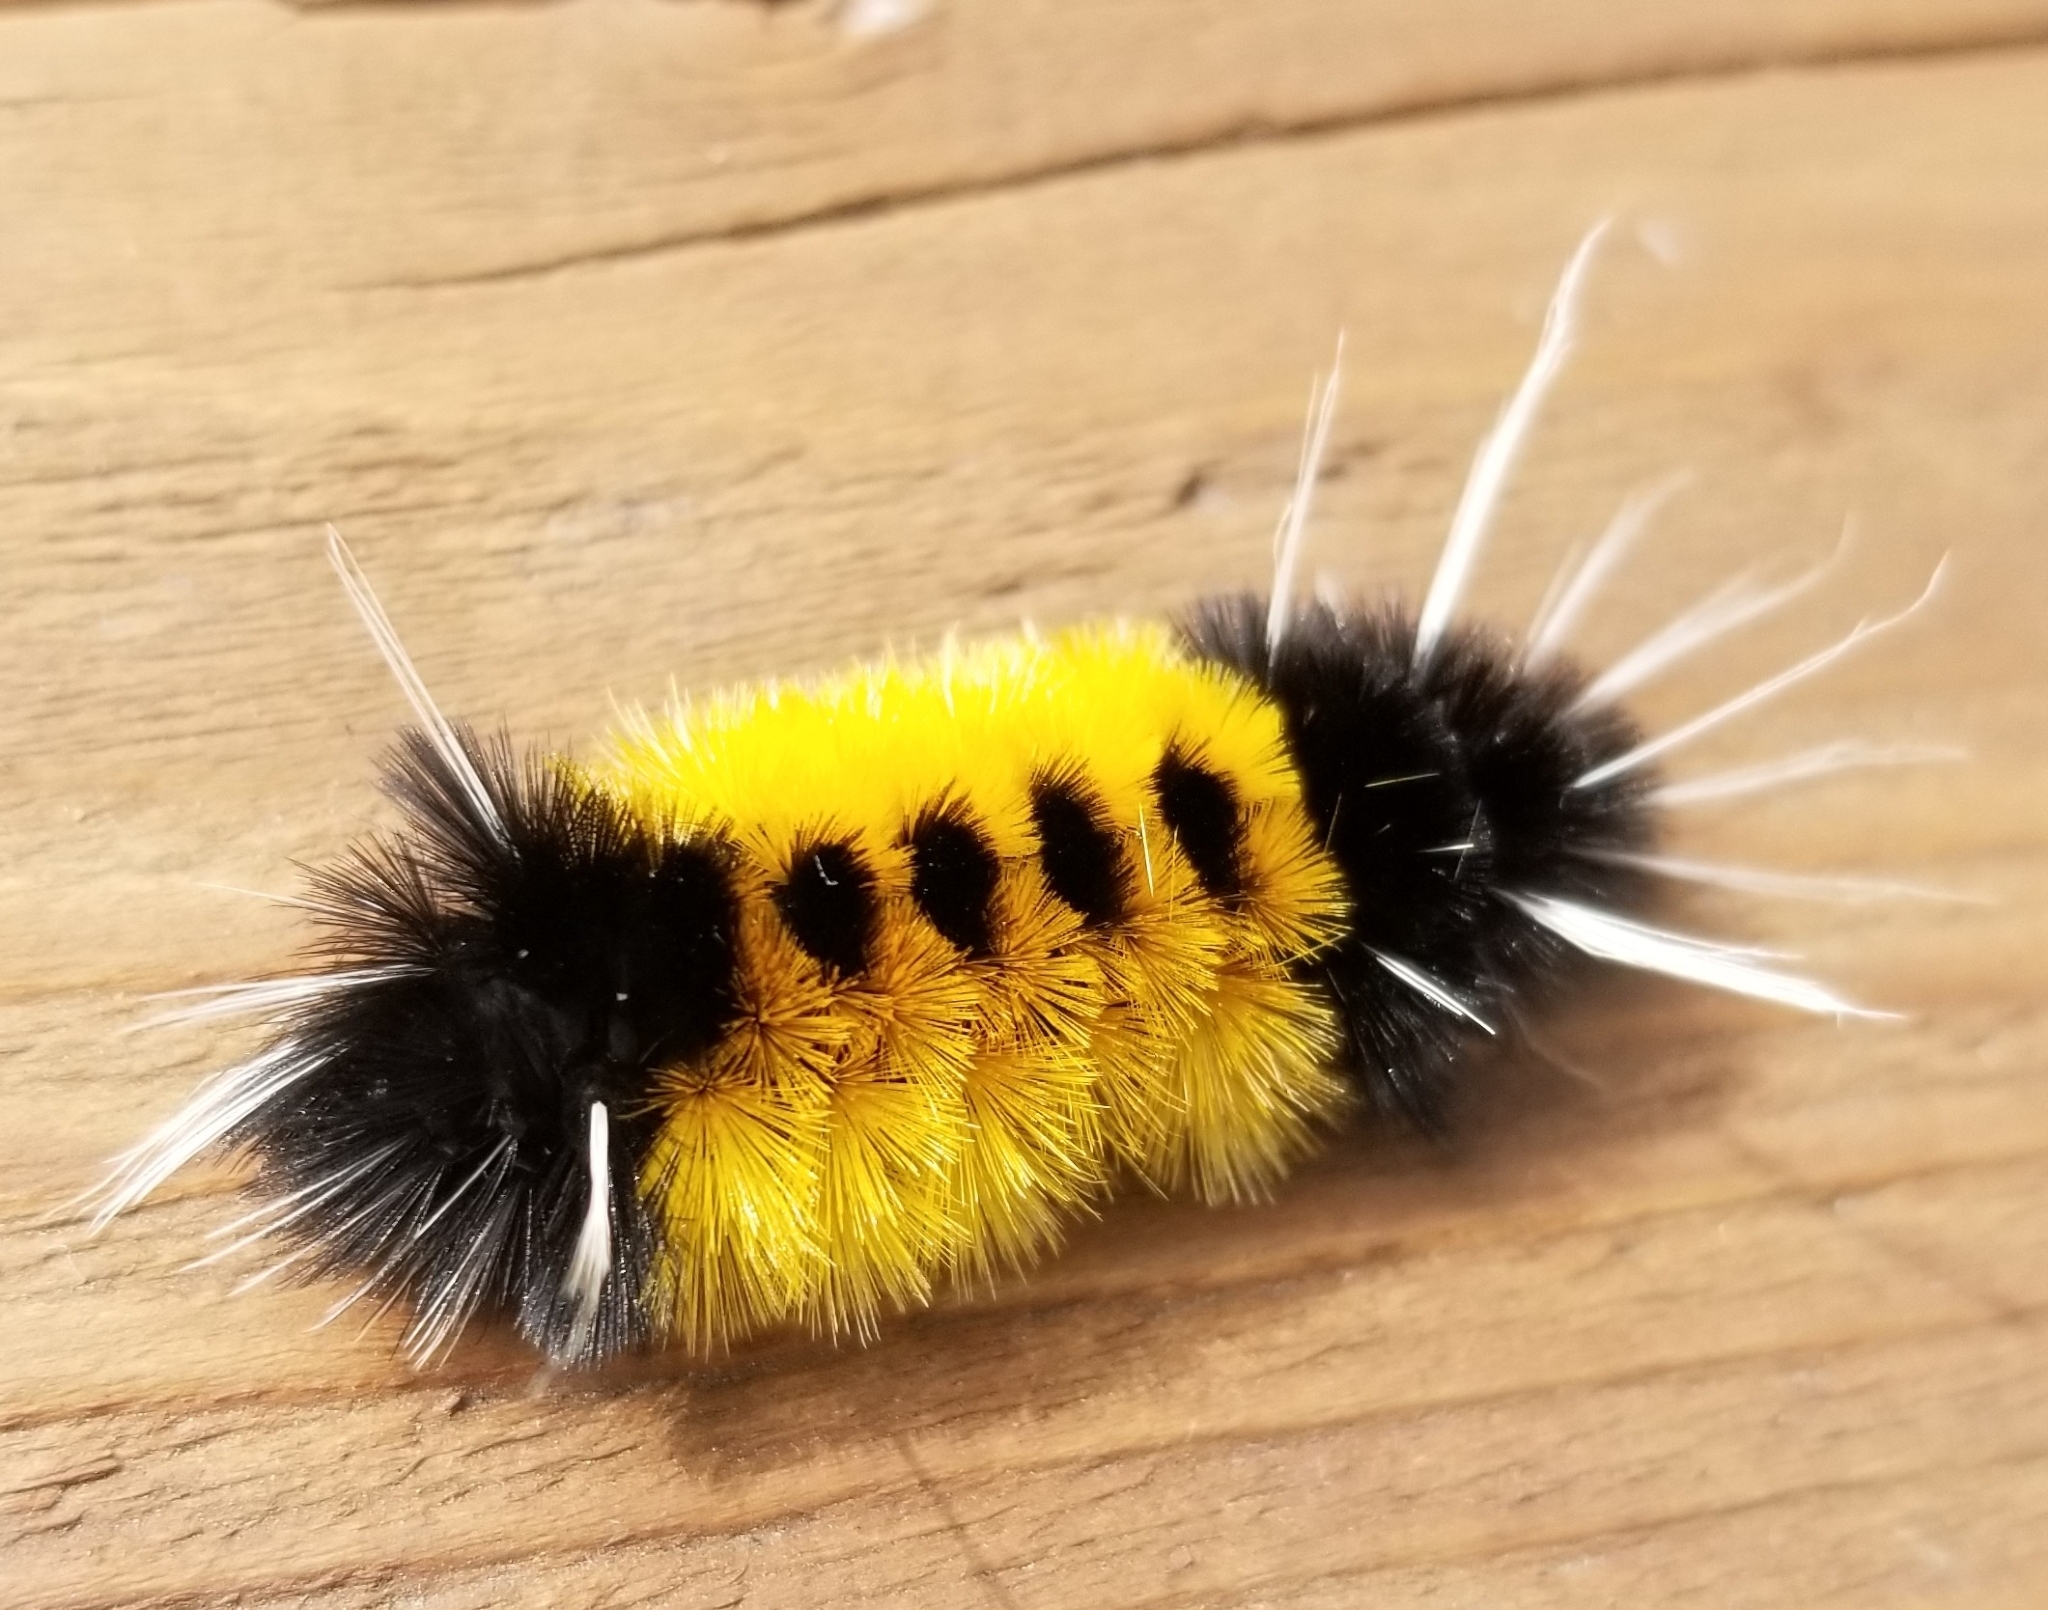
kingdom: Animalia
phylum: Arthropoda
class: Insecta
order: Lepidoptera
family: Erebidae
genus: Lophocampa
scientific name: Lophocampa maculata
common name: Spotted tussock moth
